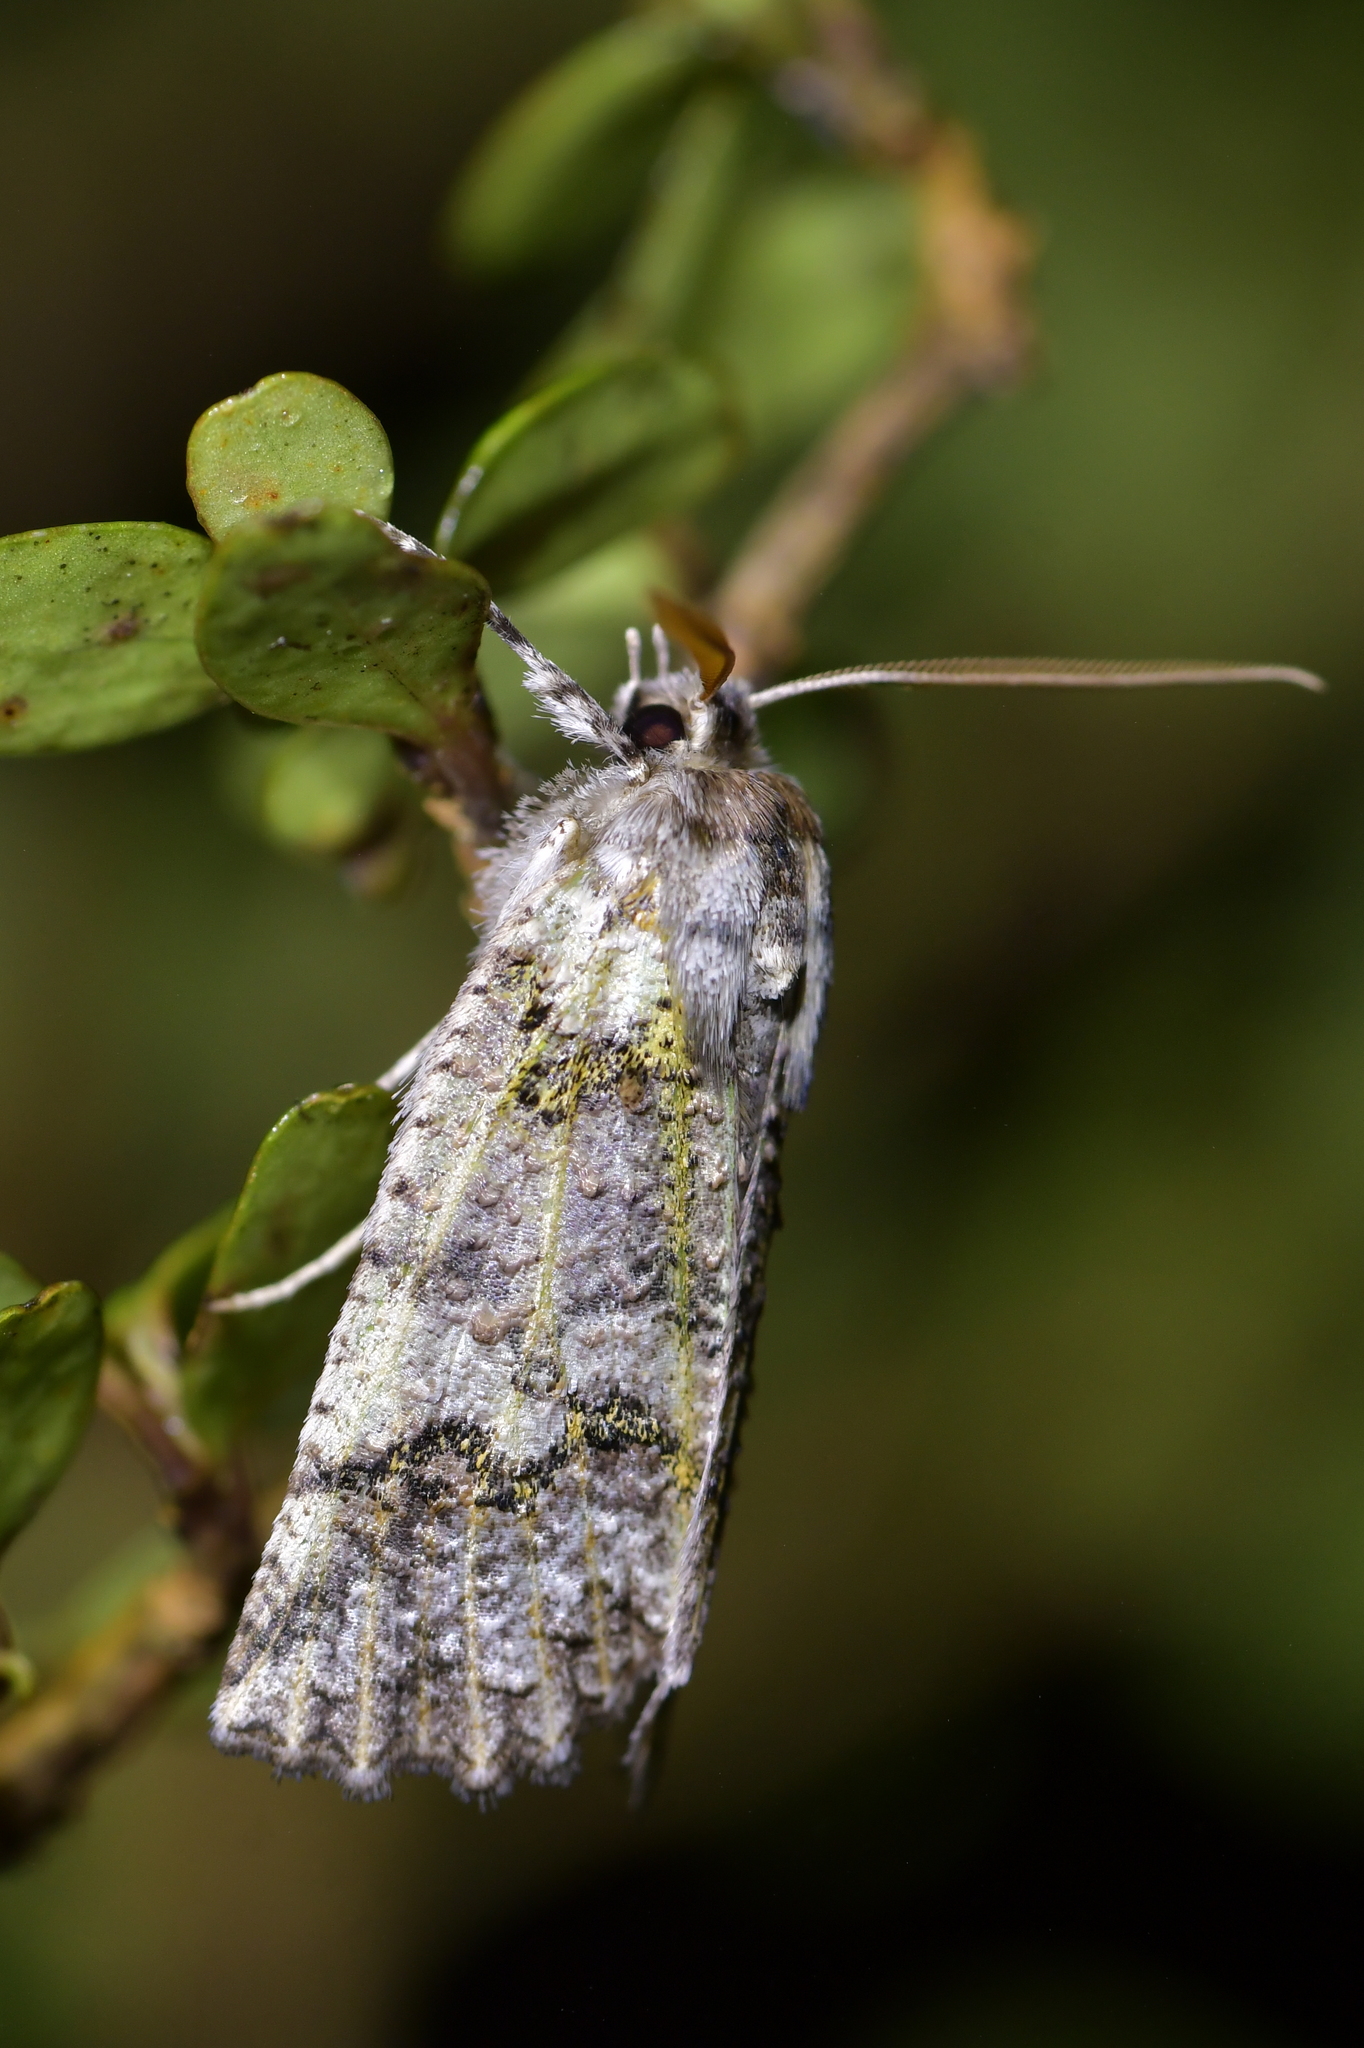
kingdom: Animalia
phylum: Arthropoda
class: Insecta
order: Lepidoptera
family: Geometridae
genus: Declana
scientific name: Declana floccosa
